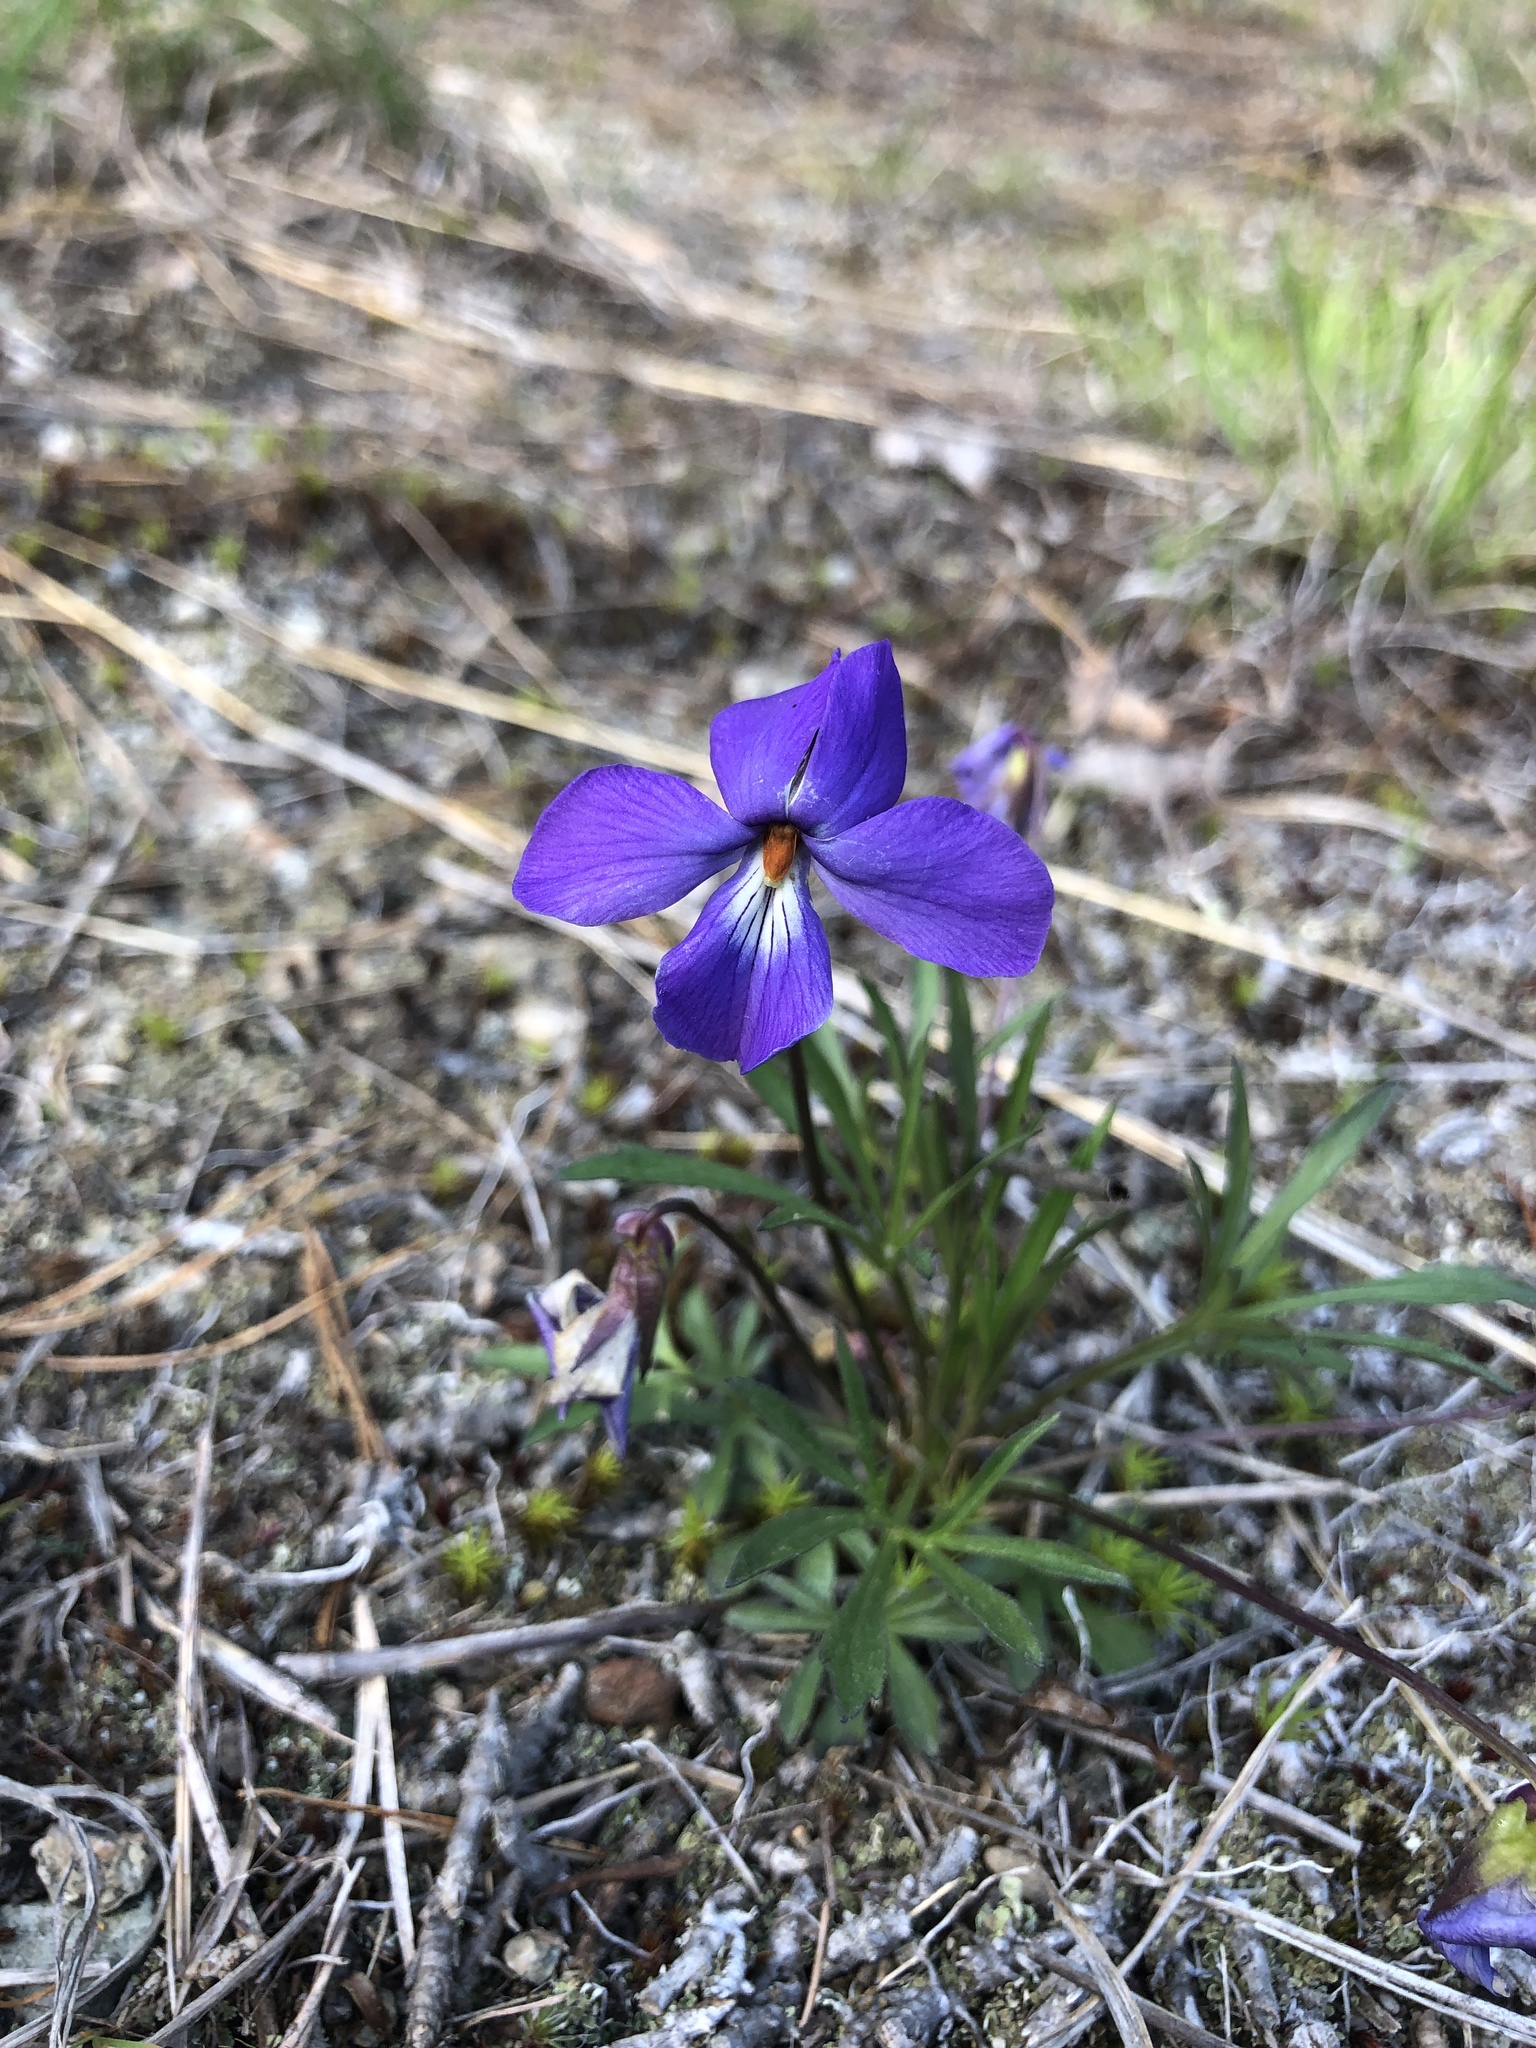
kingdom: Plantae
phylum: Tracheophyta
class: Magnoliopsida
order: Malpighiales
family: Violaceae
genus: Viola
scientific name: Viola pedata
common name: Pansy violet
